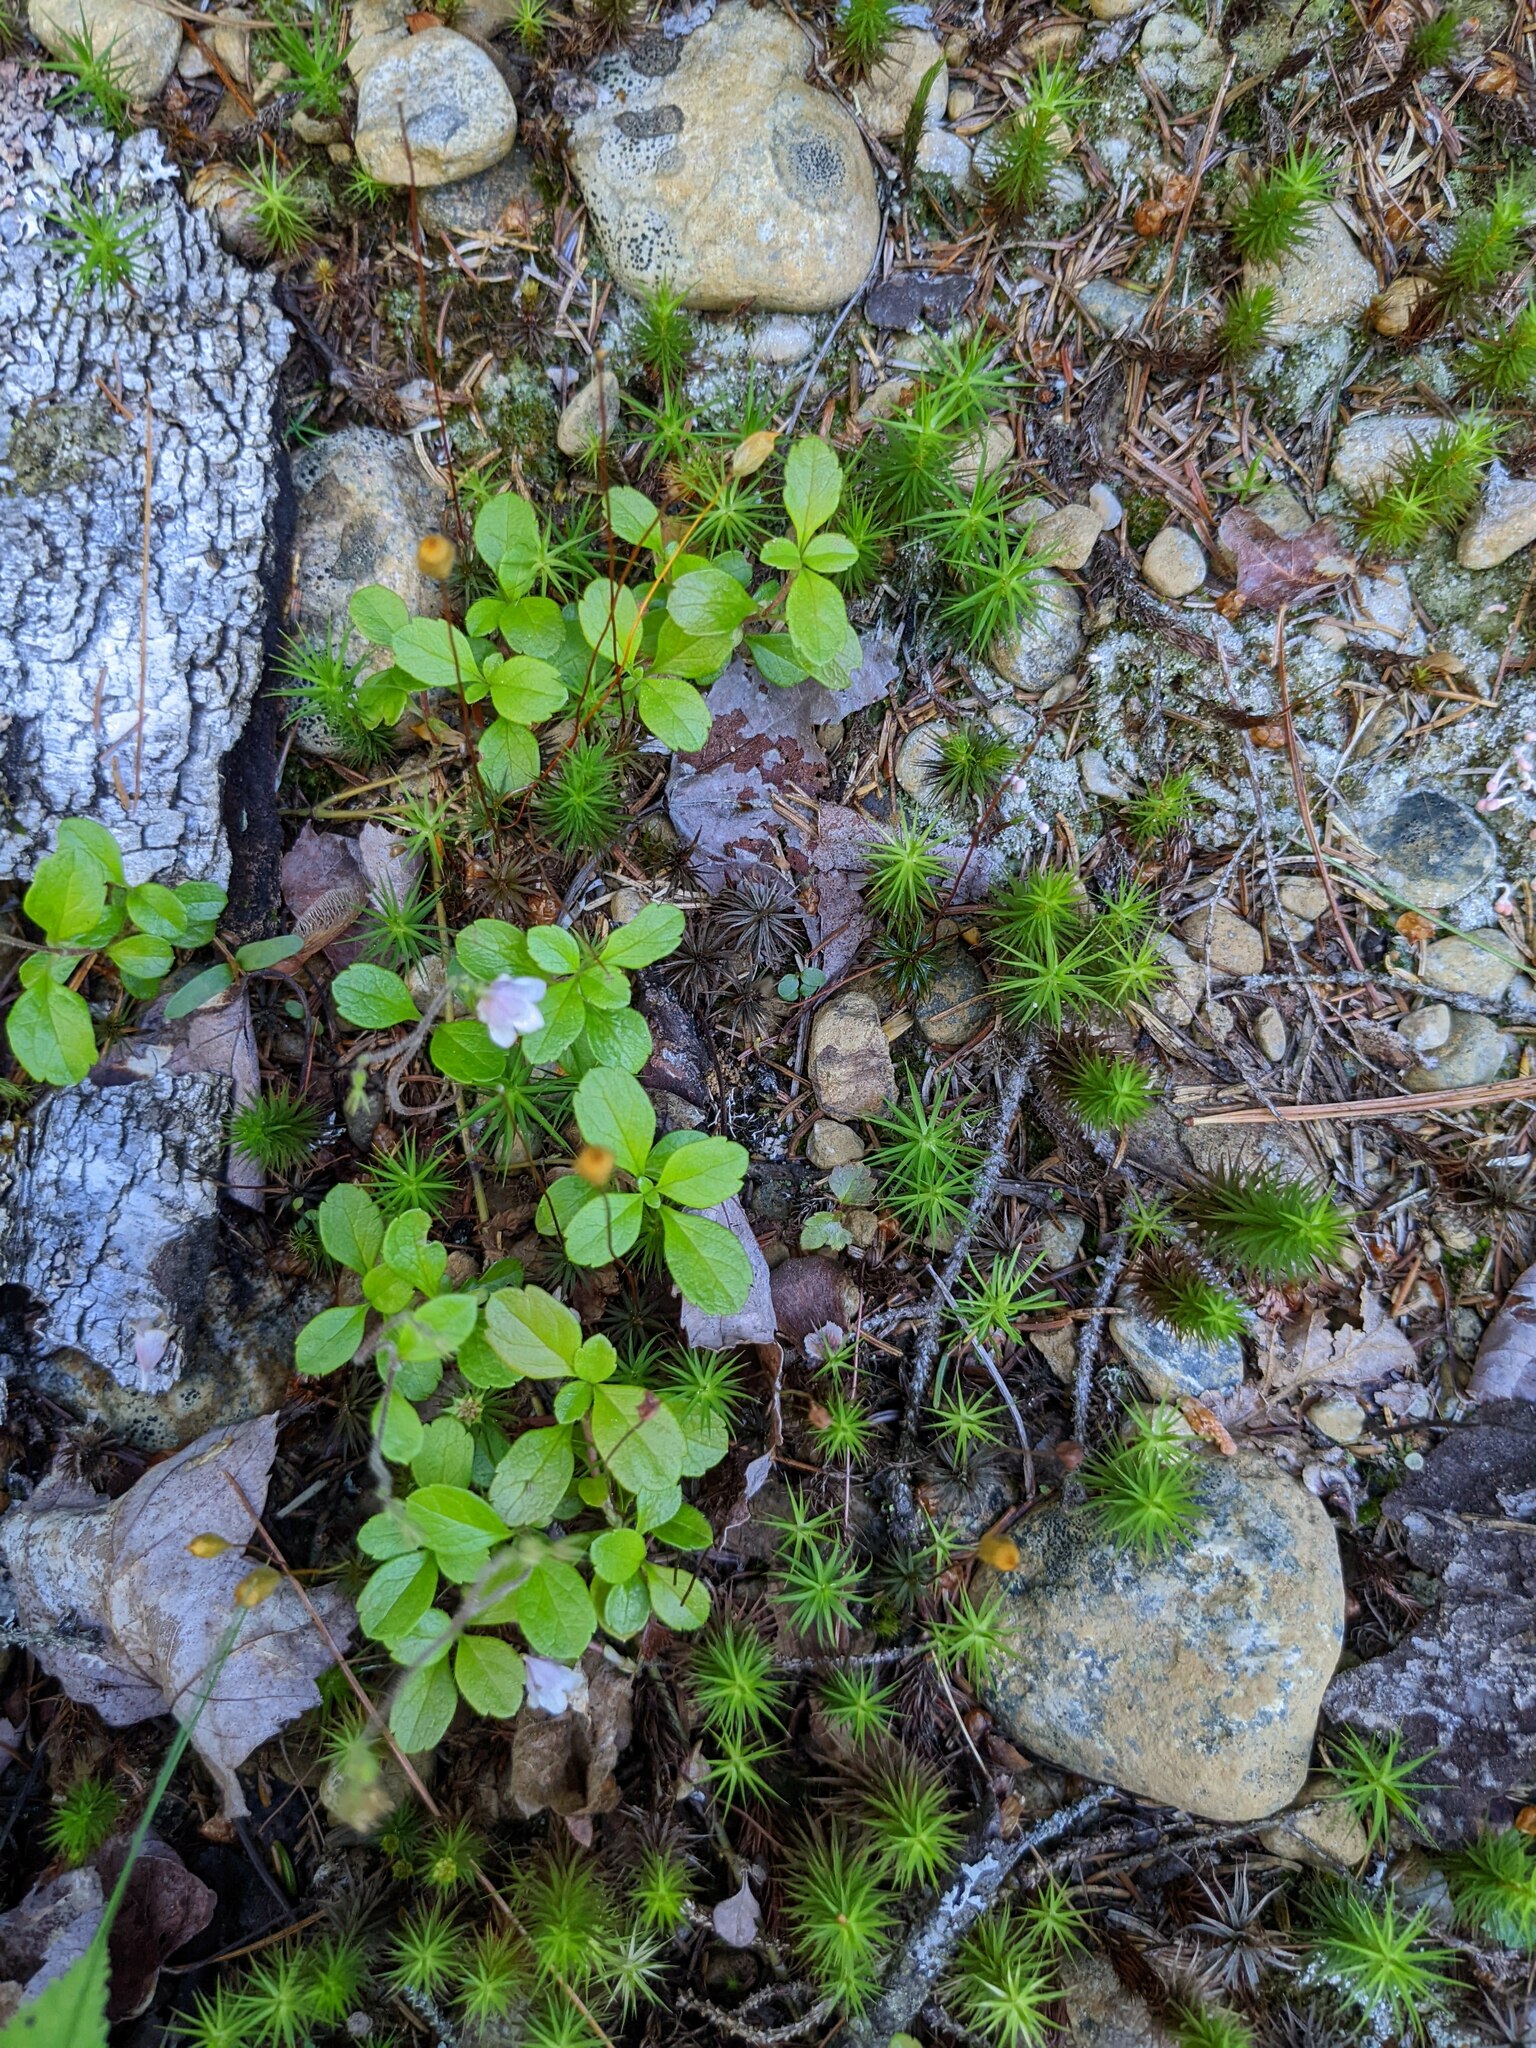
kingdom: Plantae
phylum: Tracheophyta
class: Magnoliopsida
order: Dipsacales
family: Caprifoliaceae
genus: Linnaea
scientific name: Linnaea borealis
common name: Twinflower
